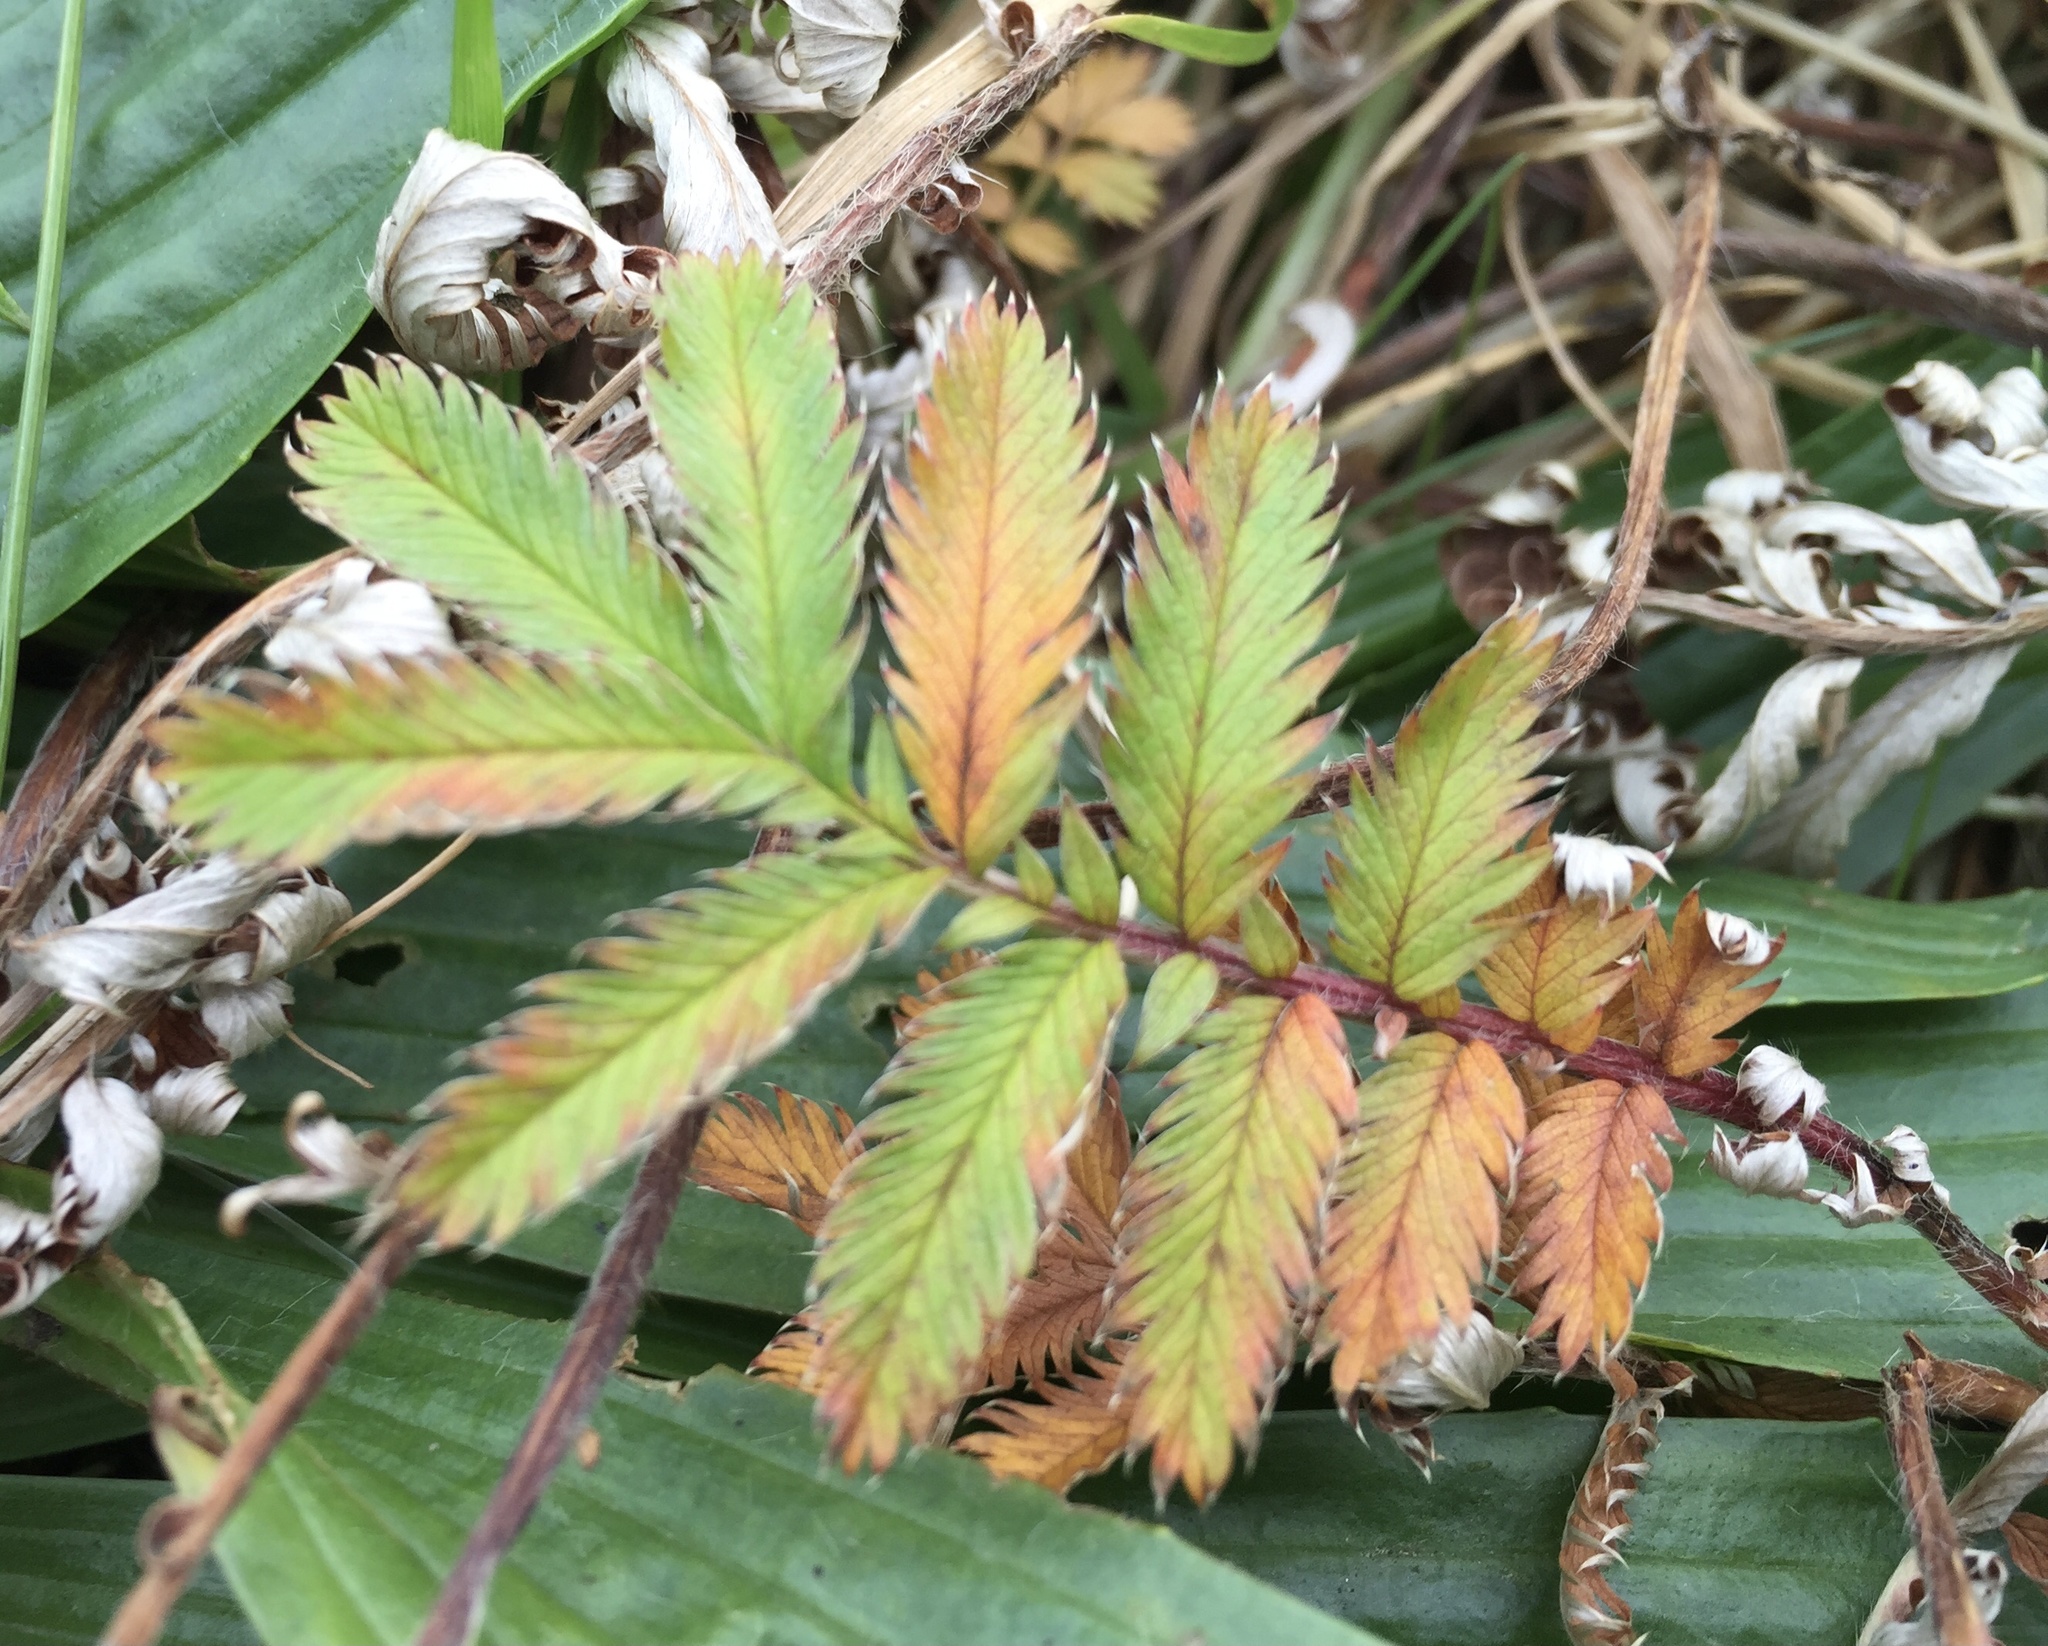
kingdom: Plantae
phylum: Tracheophyta
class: Magnoliopsida
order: Rosales
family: Rosaceae
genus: Argentina
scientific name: Argentina anserina
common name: Common silverweed
